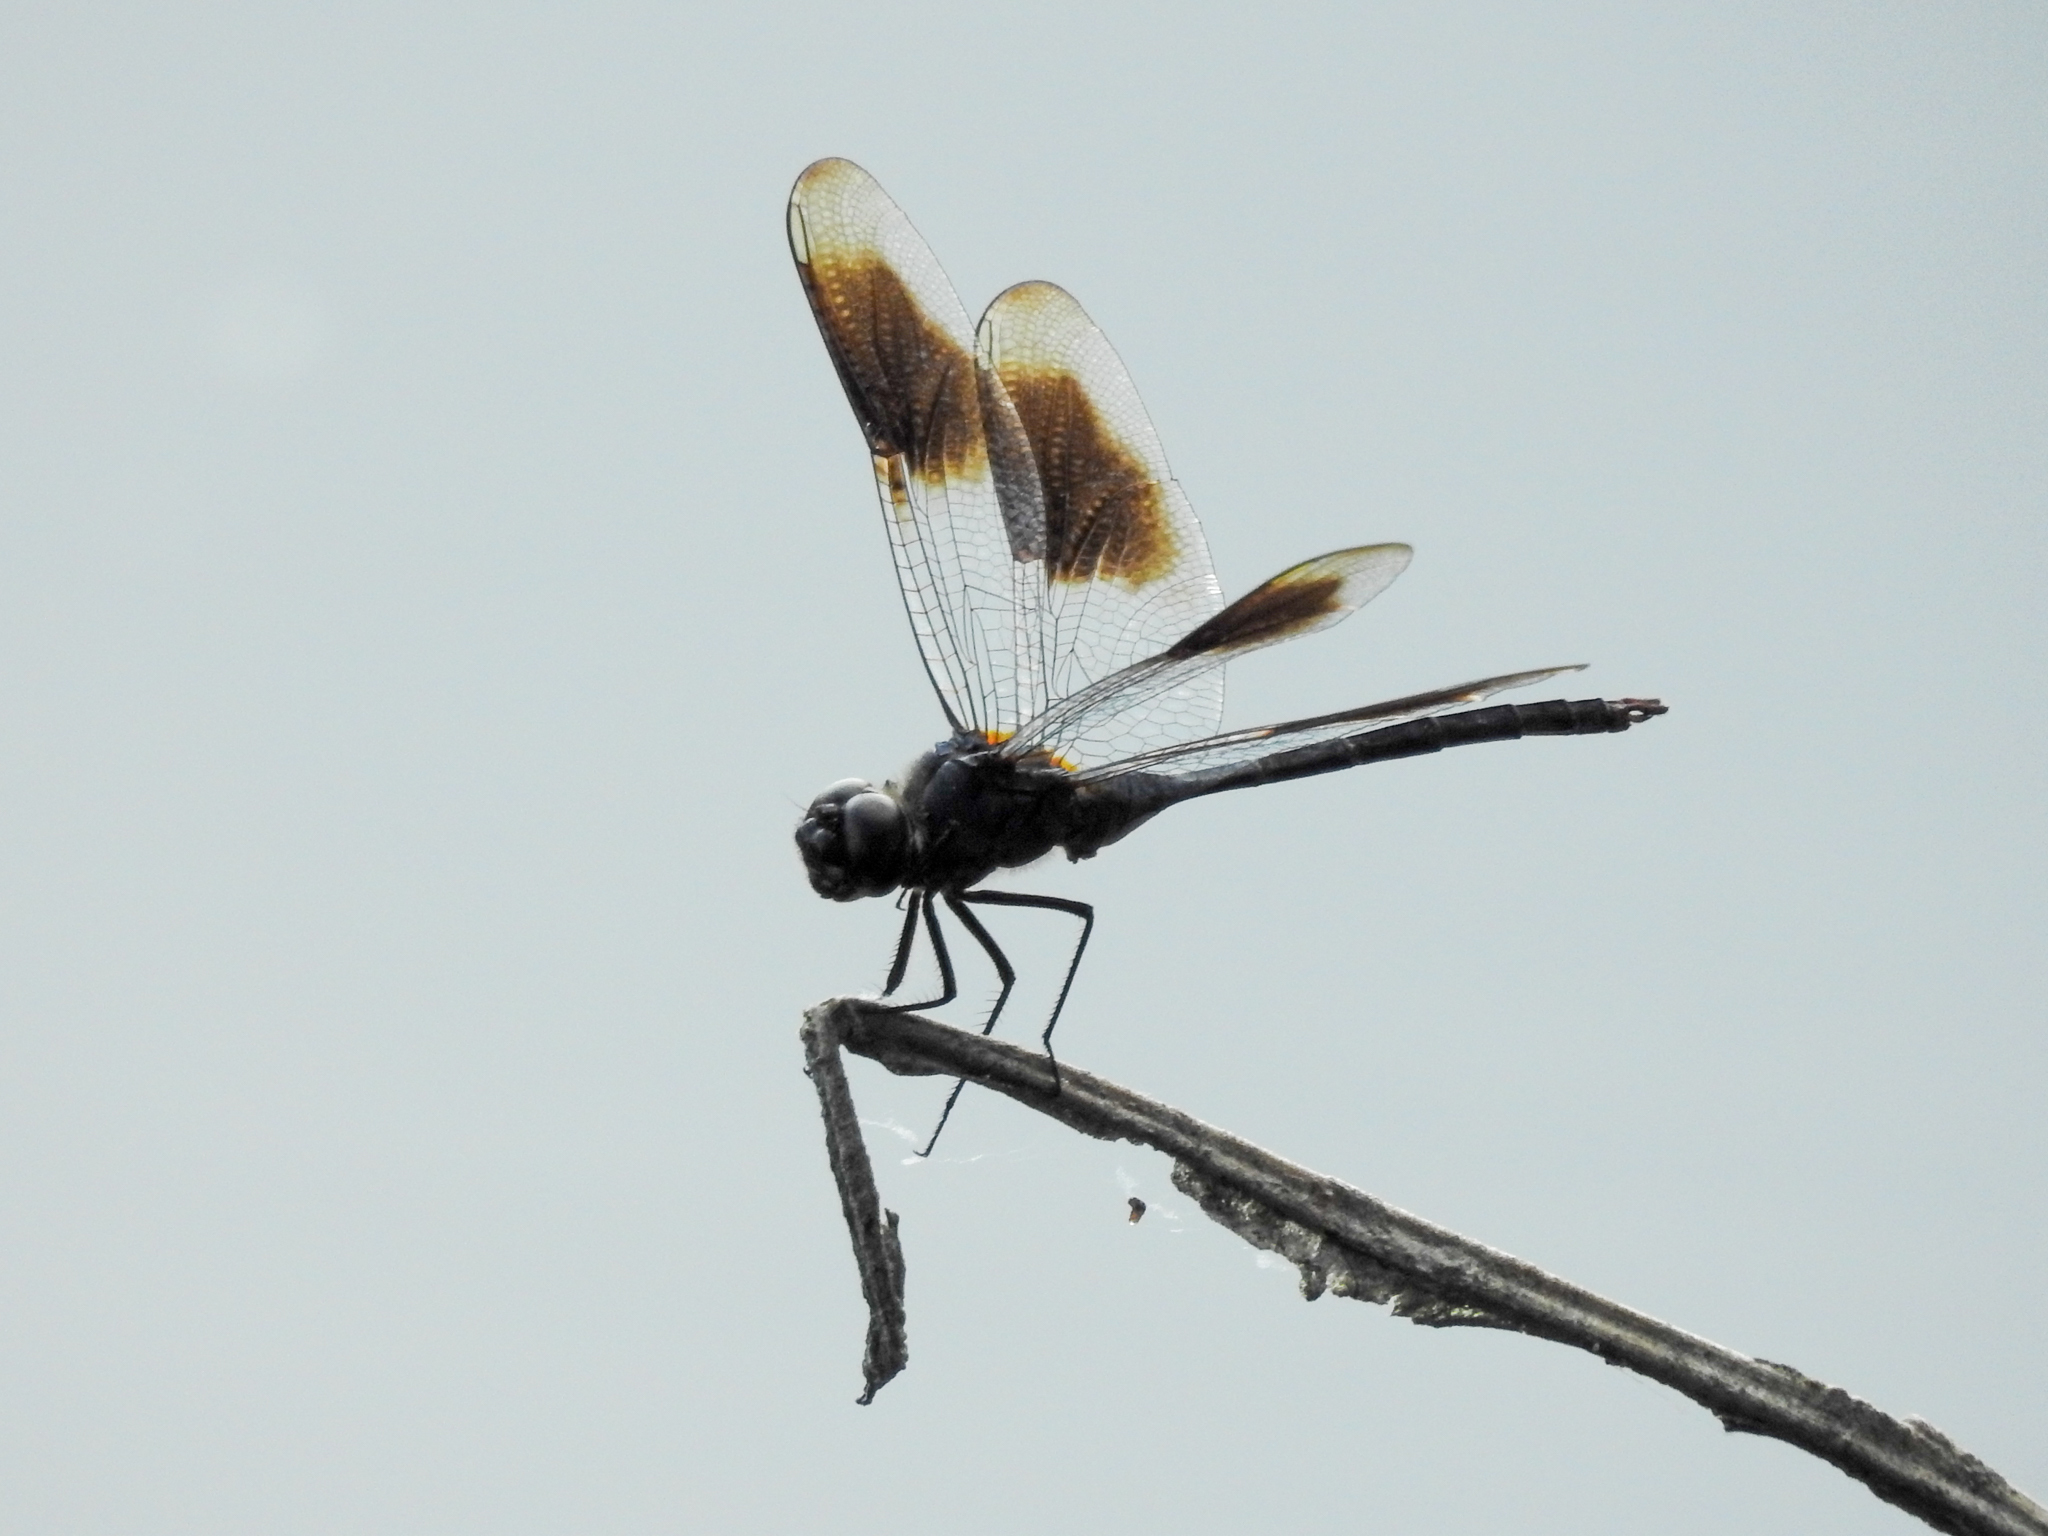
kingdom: Animalia
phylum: Arthropoda
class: Insecta
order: Odonata
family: Libellulidae
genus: Brachymesia
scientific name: Brachymesia gravida
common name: Four-spotted pennant
